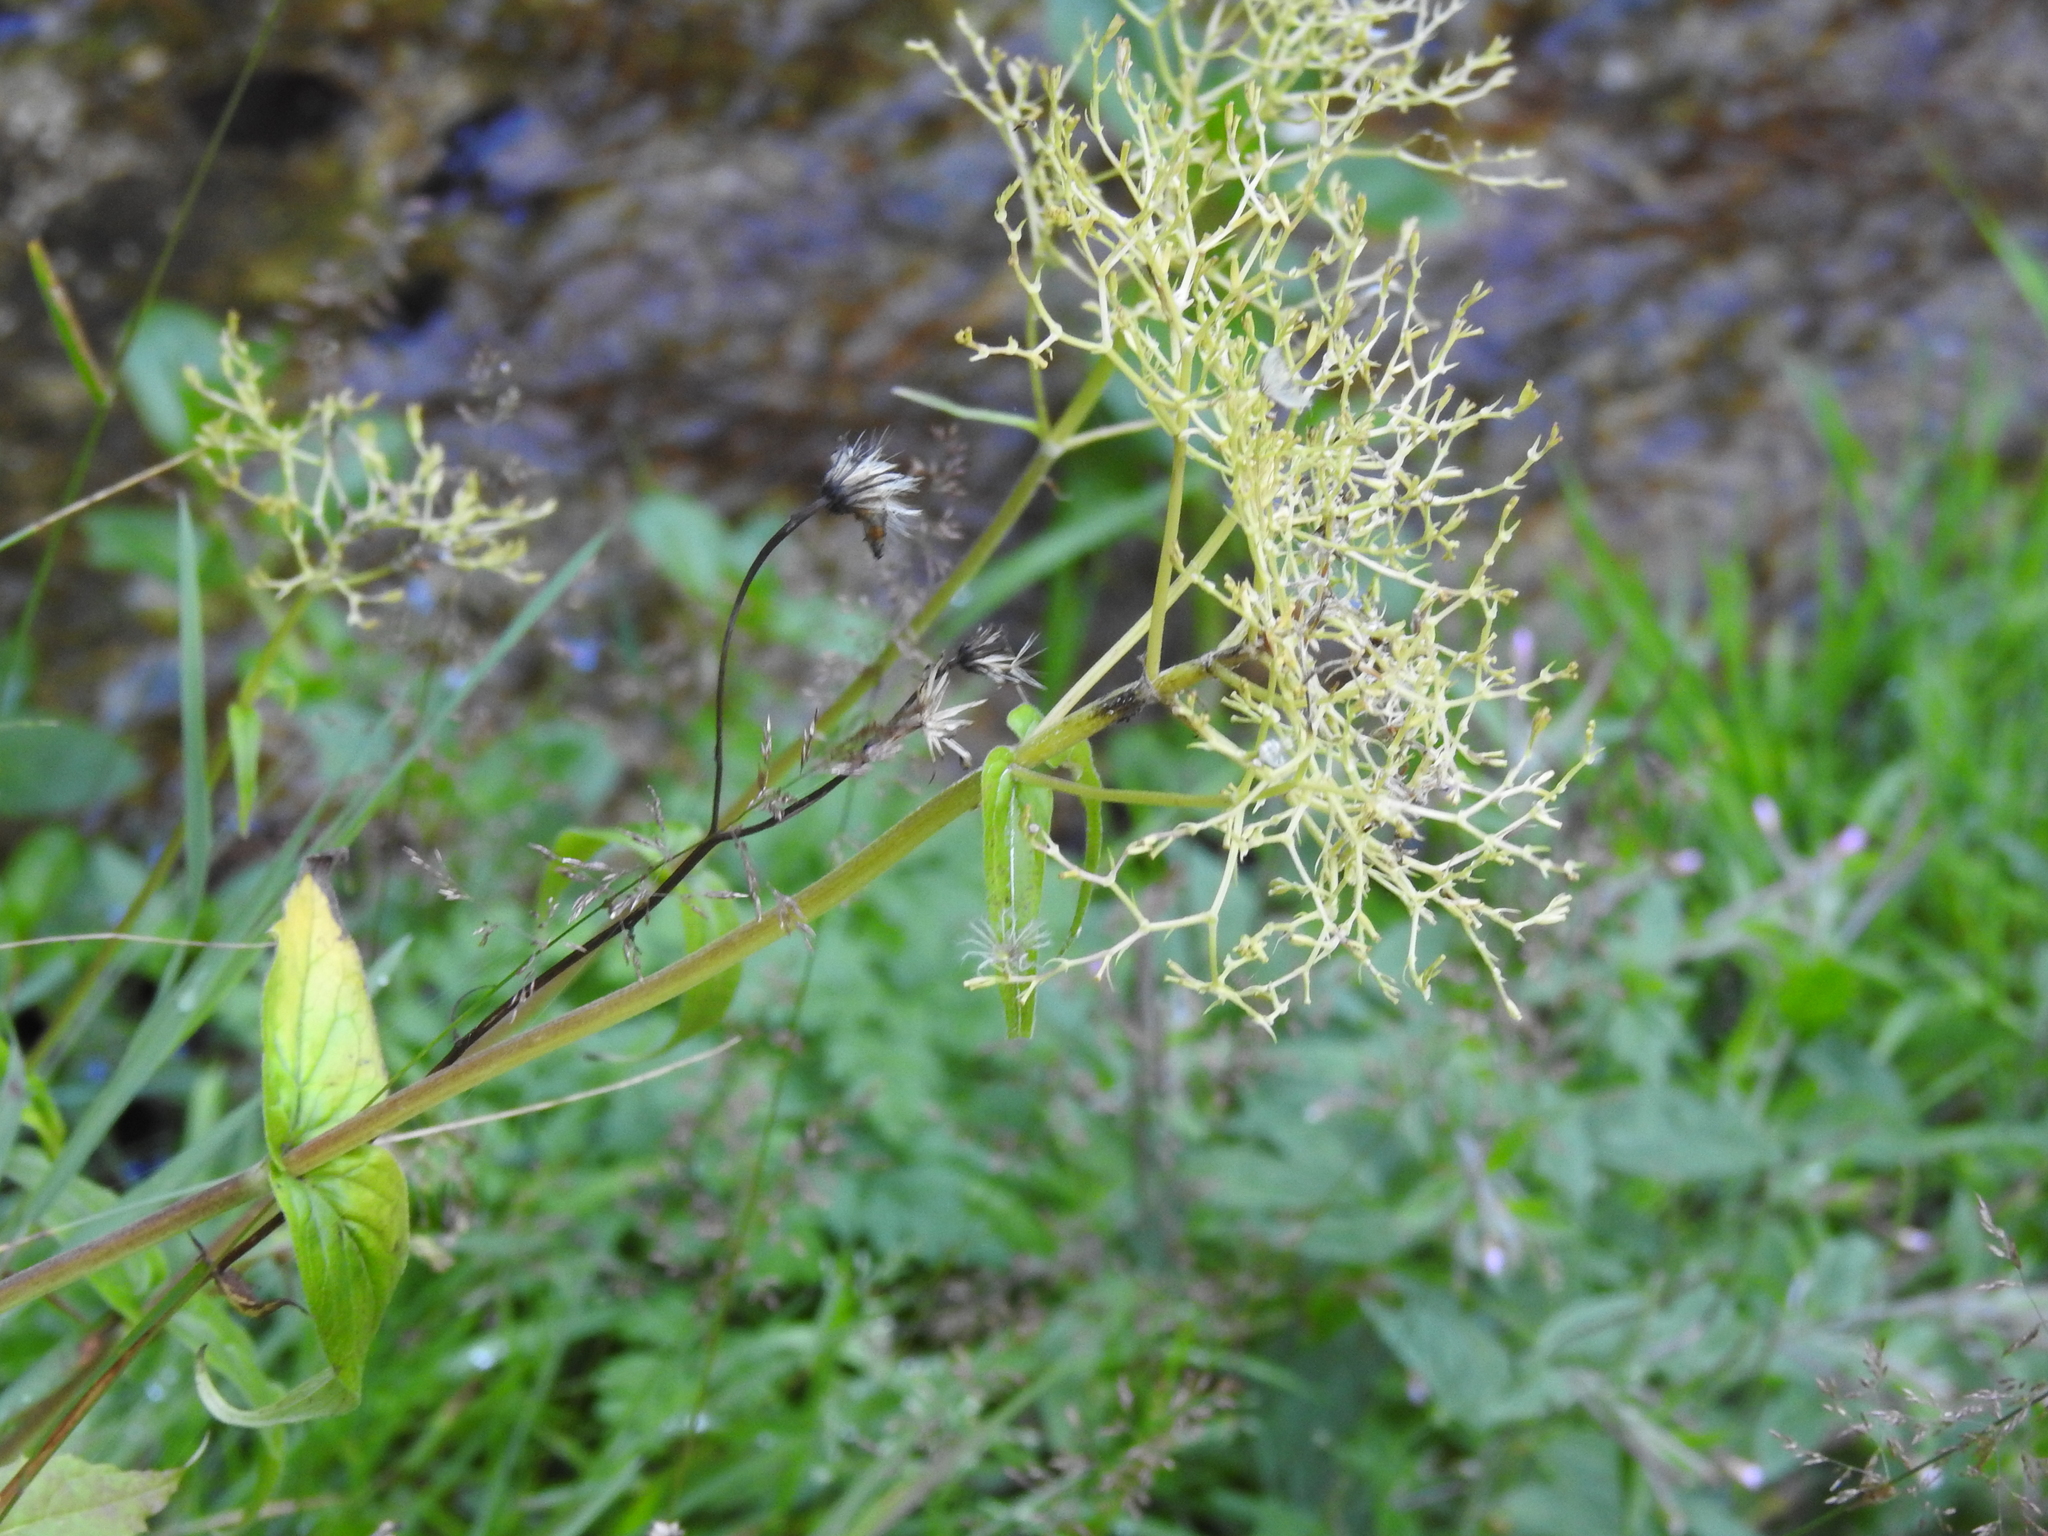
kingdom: Plantae
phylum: Tracheophyta
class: Magnoliopsida
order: Dipsacales
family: Caprifoliaceae
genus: Valeriana
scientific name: Valeriana montana
